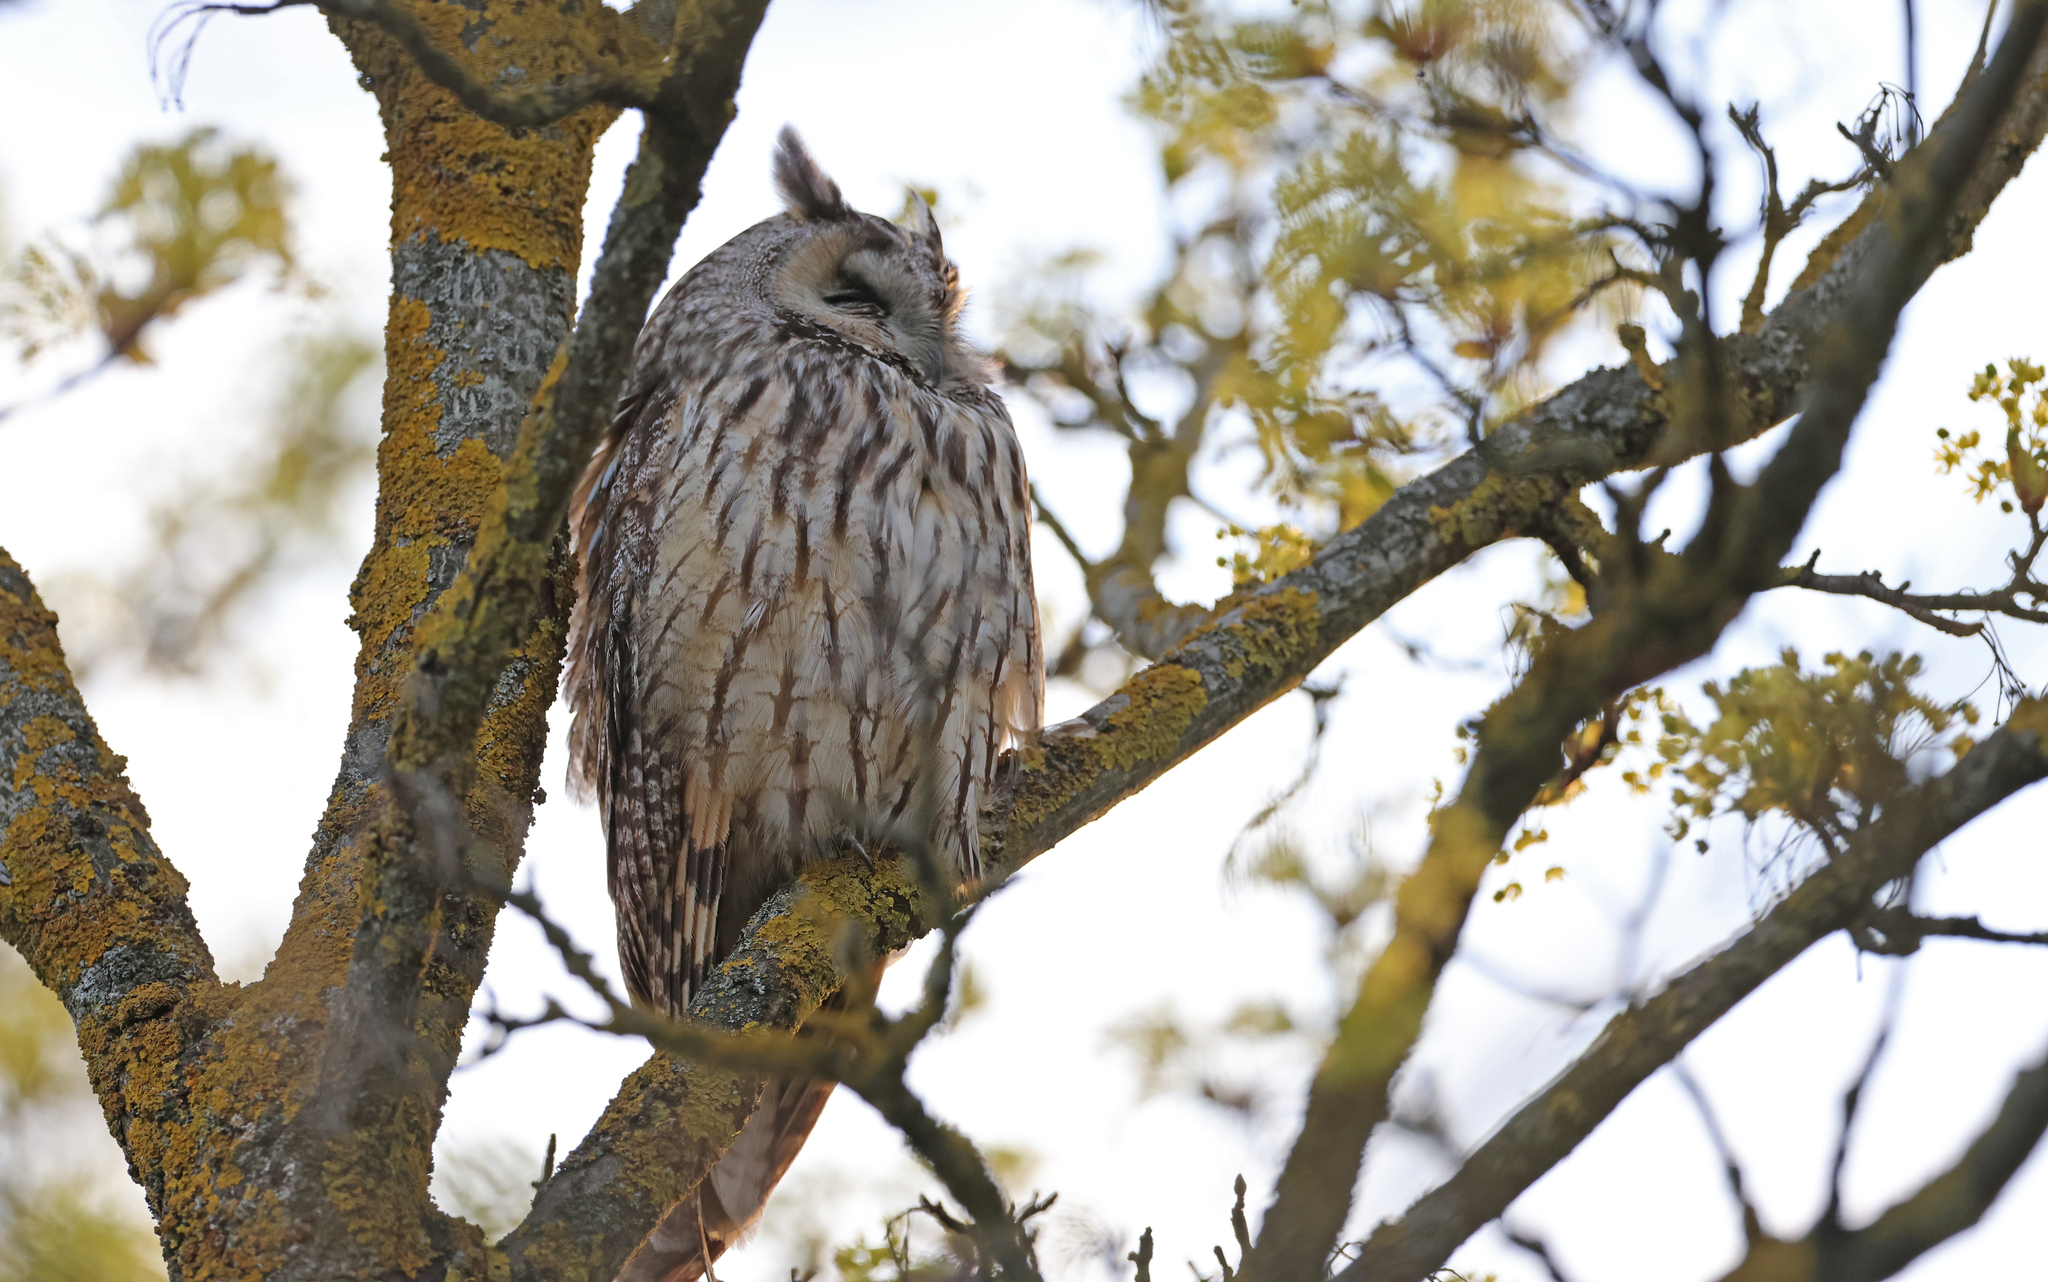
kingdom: Animalia
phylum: Chordata
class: Aves
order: Strigiformes
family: Strigidae
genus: Asio
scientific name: Asio otus
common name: Long-eared owl
